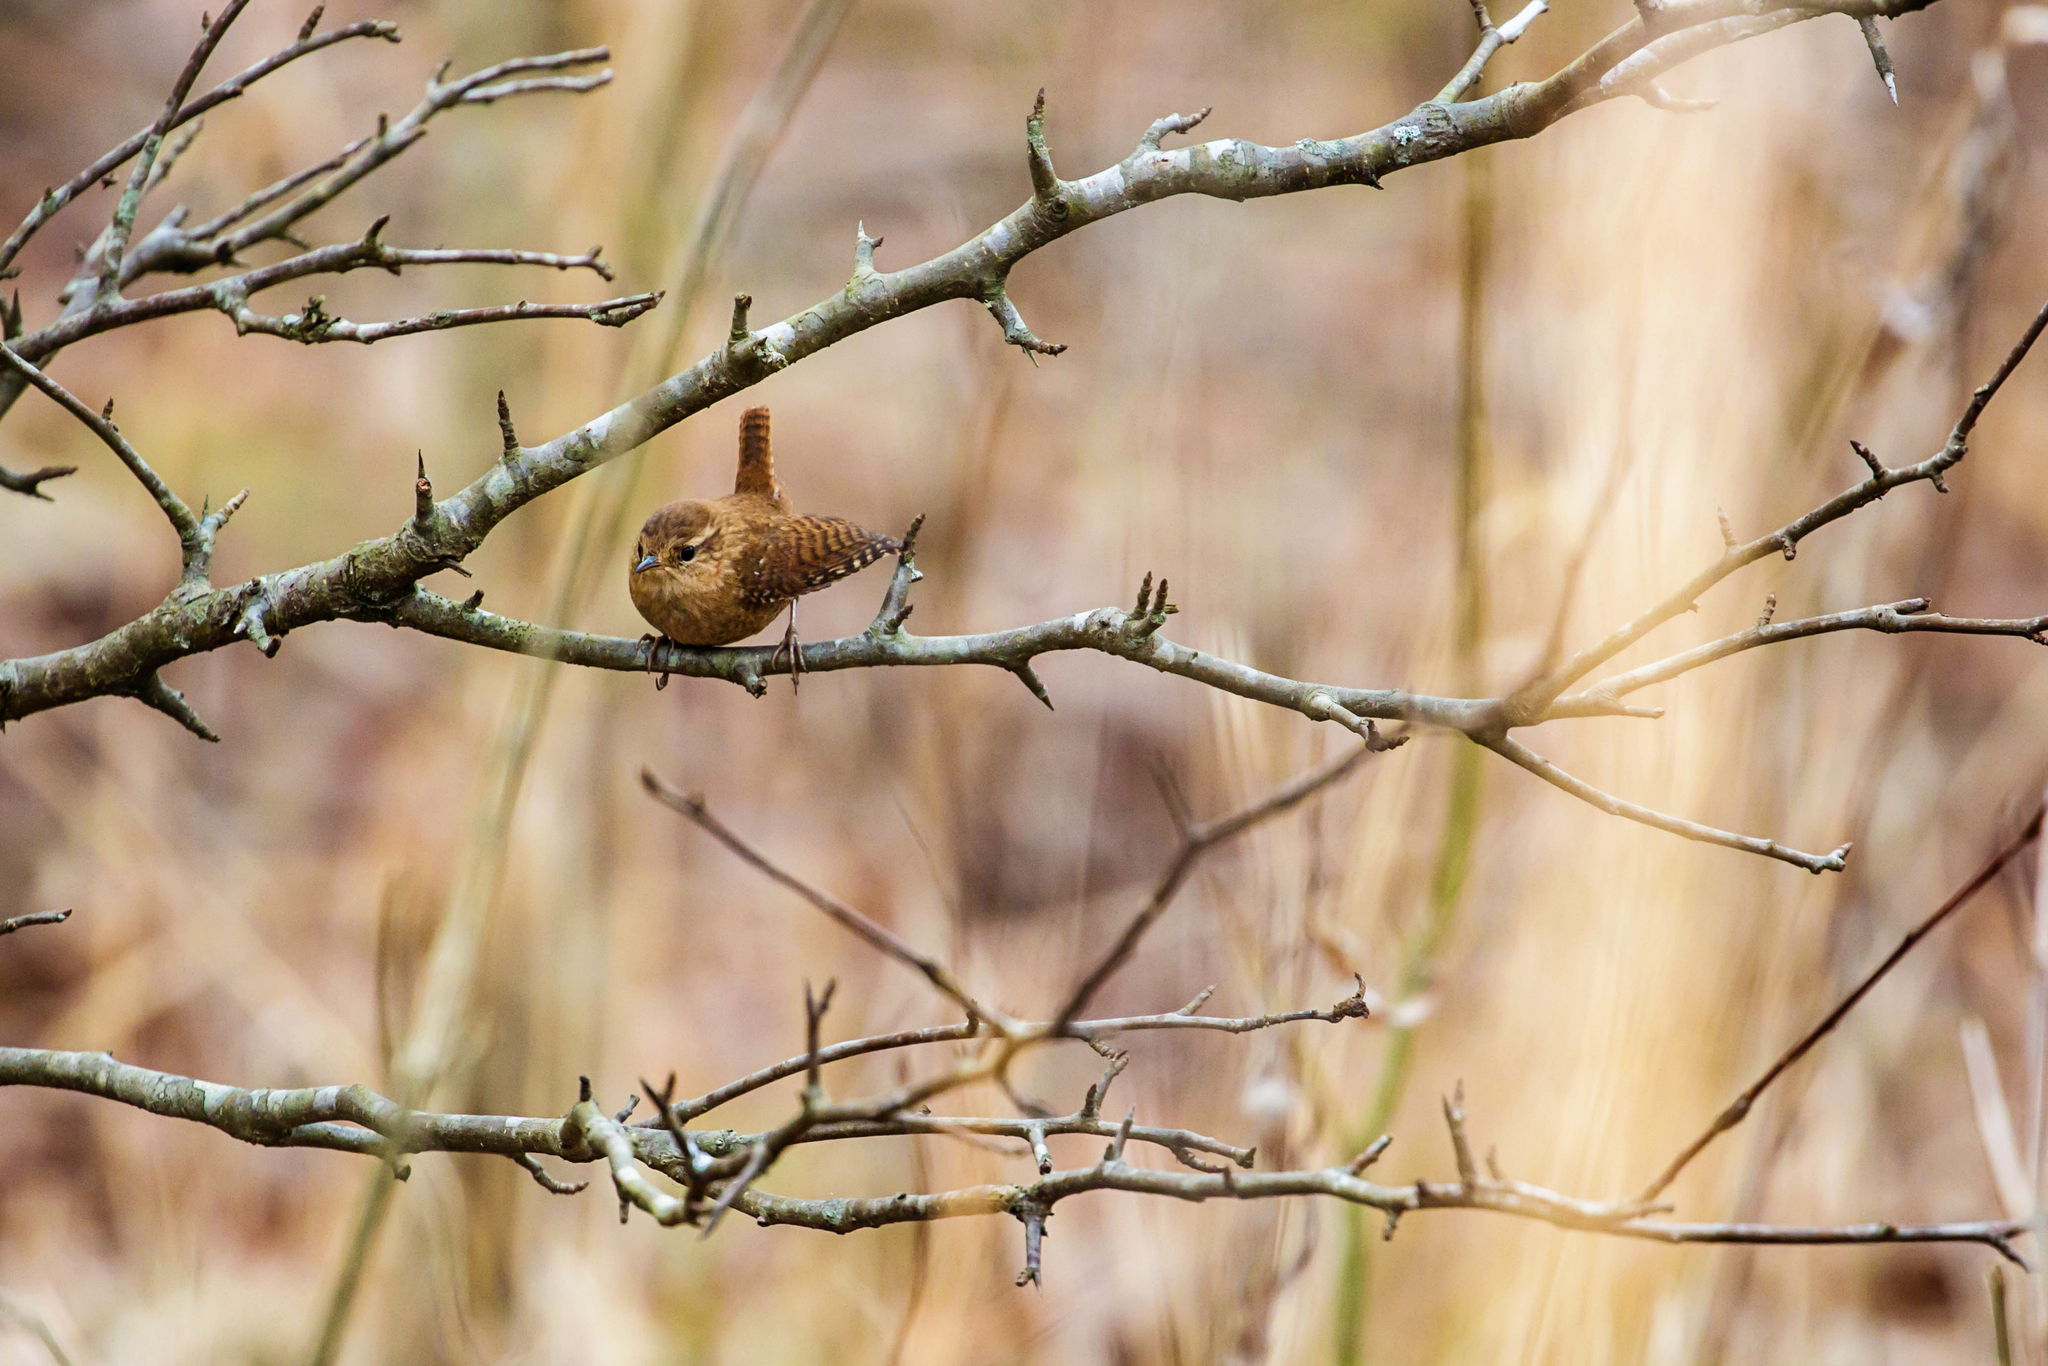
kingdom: Animalia
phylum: Chordata
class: Aves
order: Passeriformes
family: Troglodytidae
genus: Troglodytes
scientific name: Troglodytes hiemalis
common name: Winter wren
